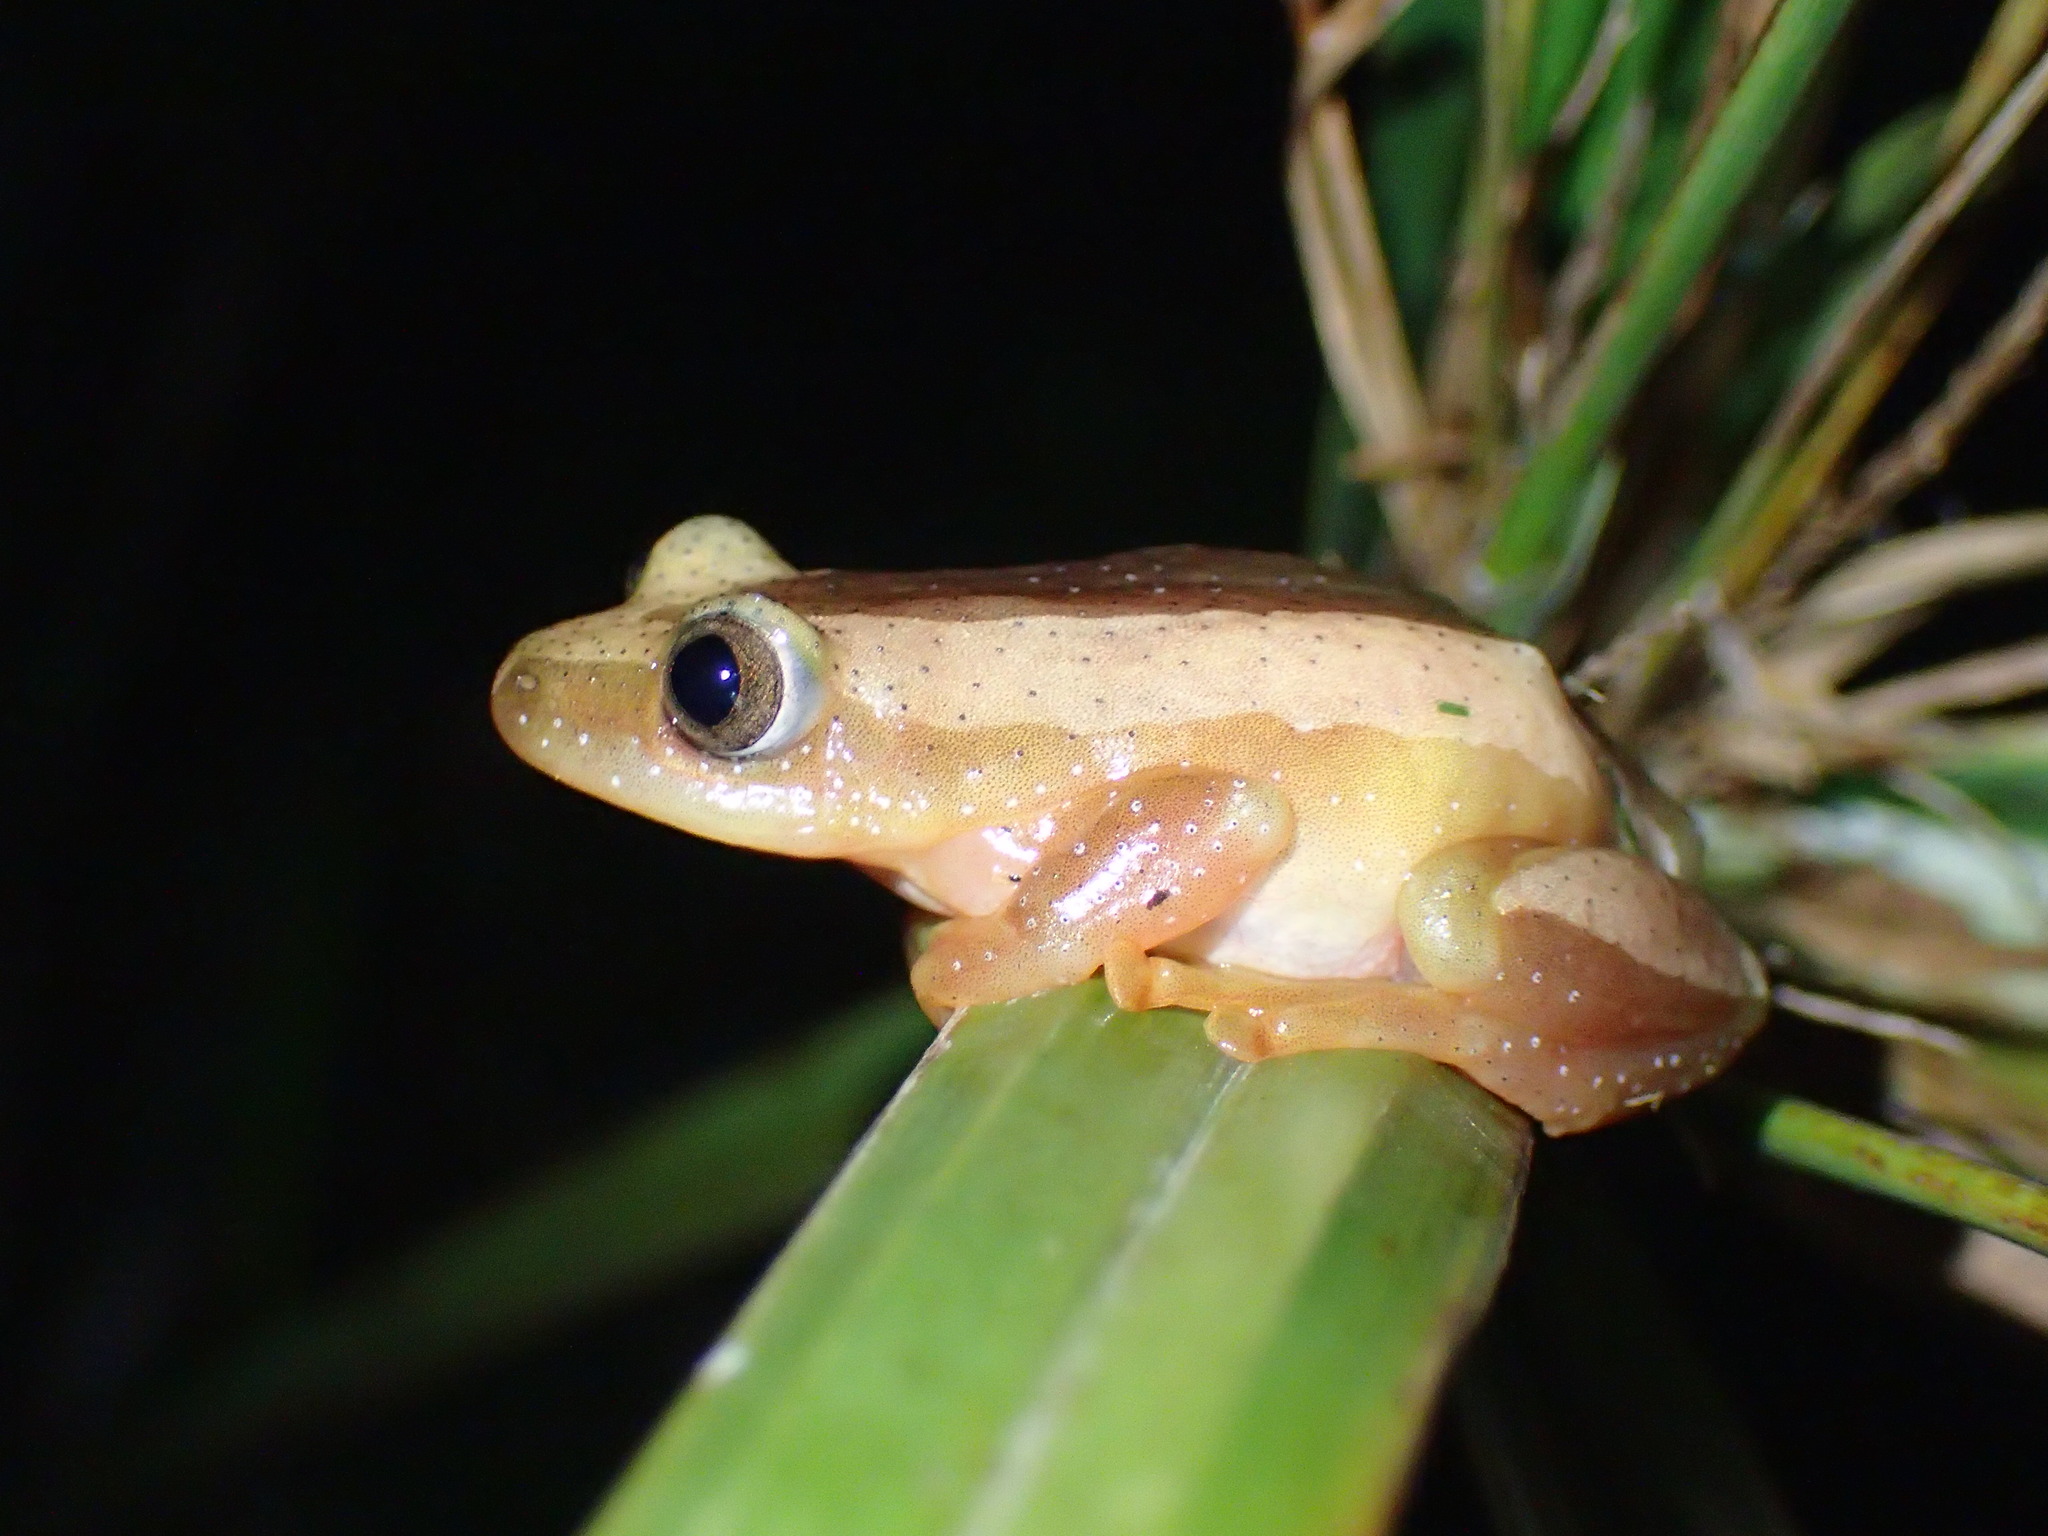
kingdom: Animalia
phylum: Chordata
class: Amphibia
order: Anura
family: Hyperoliidae
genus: Afrixalus
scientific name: Afrixalus fornasini
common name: Fornasini's spiny reed frog
